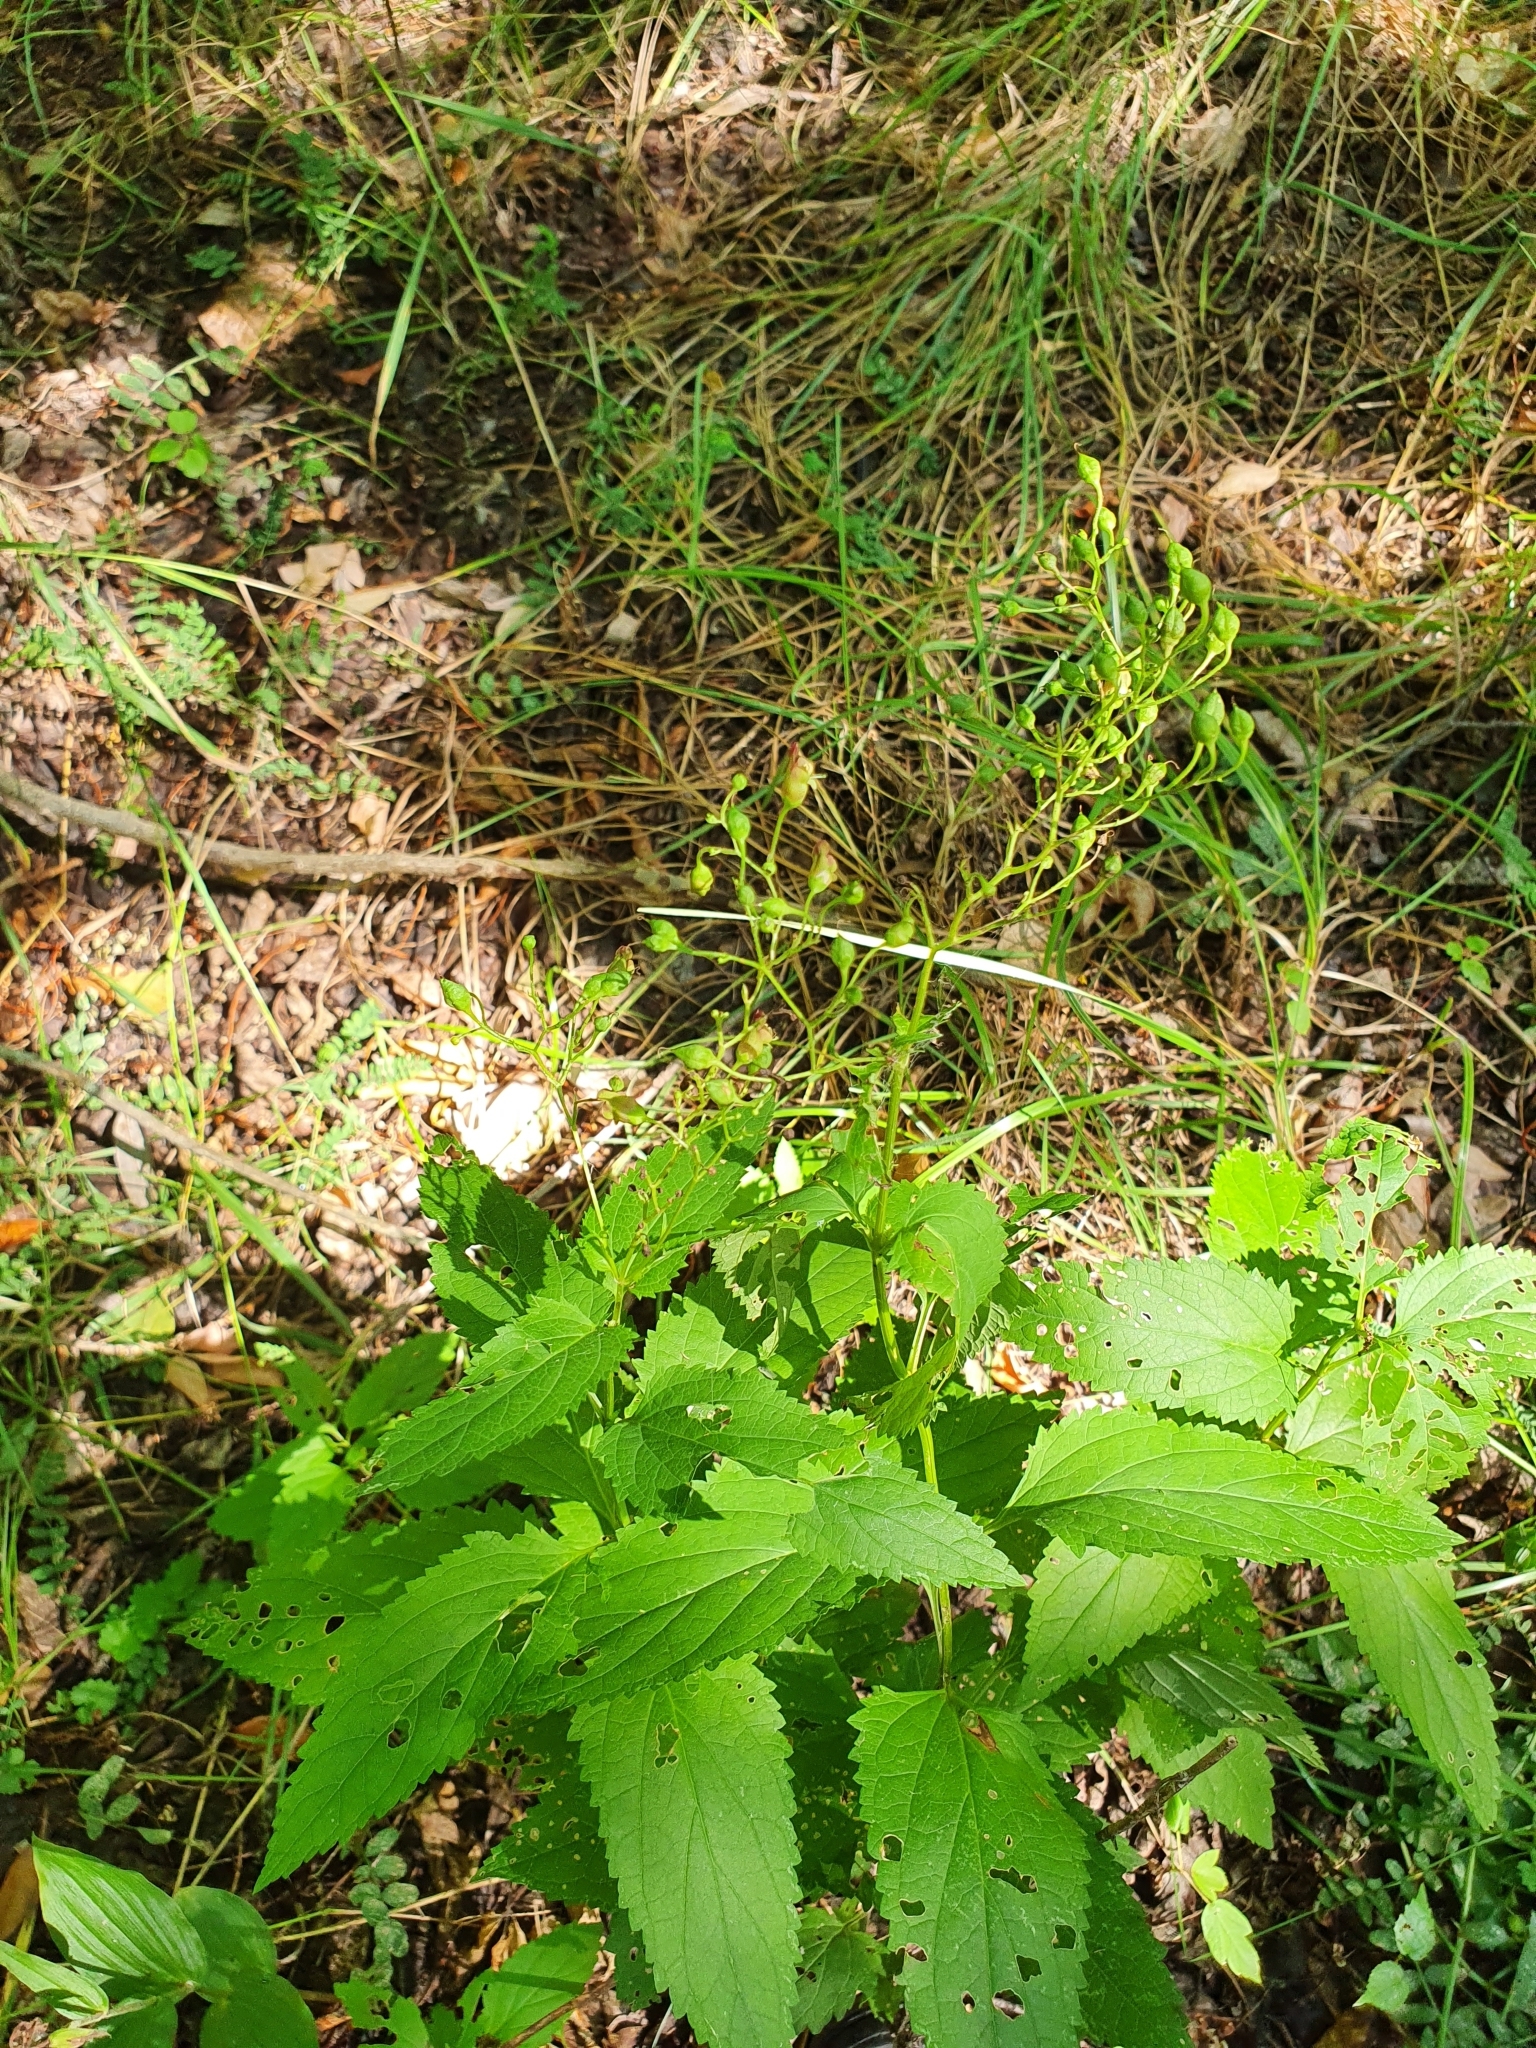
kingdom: Plantae
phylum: Tracheophyta
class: Magnoliopsida
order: Lamiales
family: Scrophulariaceae
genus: Scrophularia
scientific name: Scrophularia nodosa
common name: Common figwort
